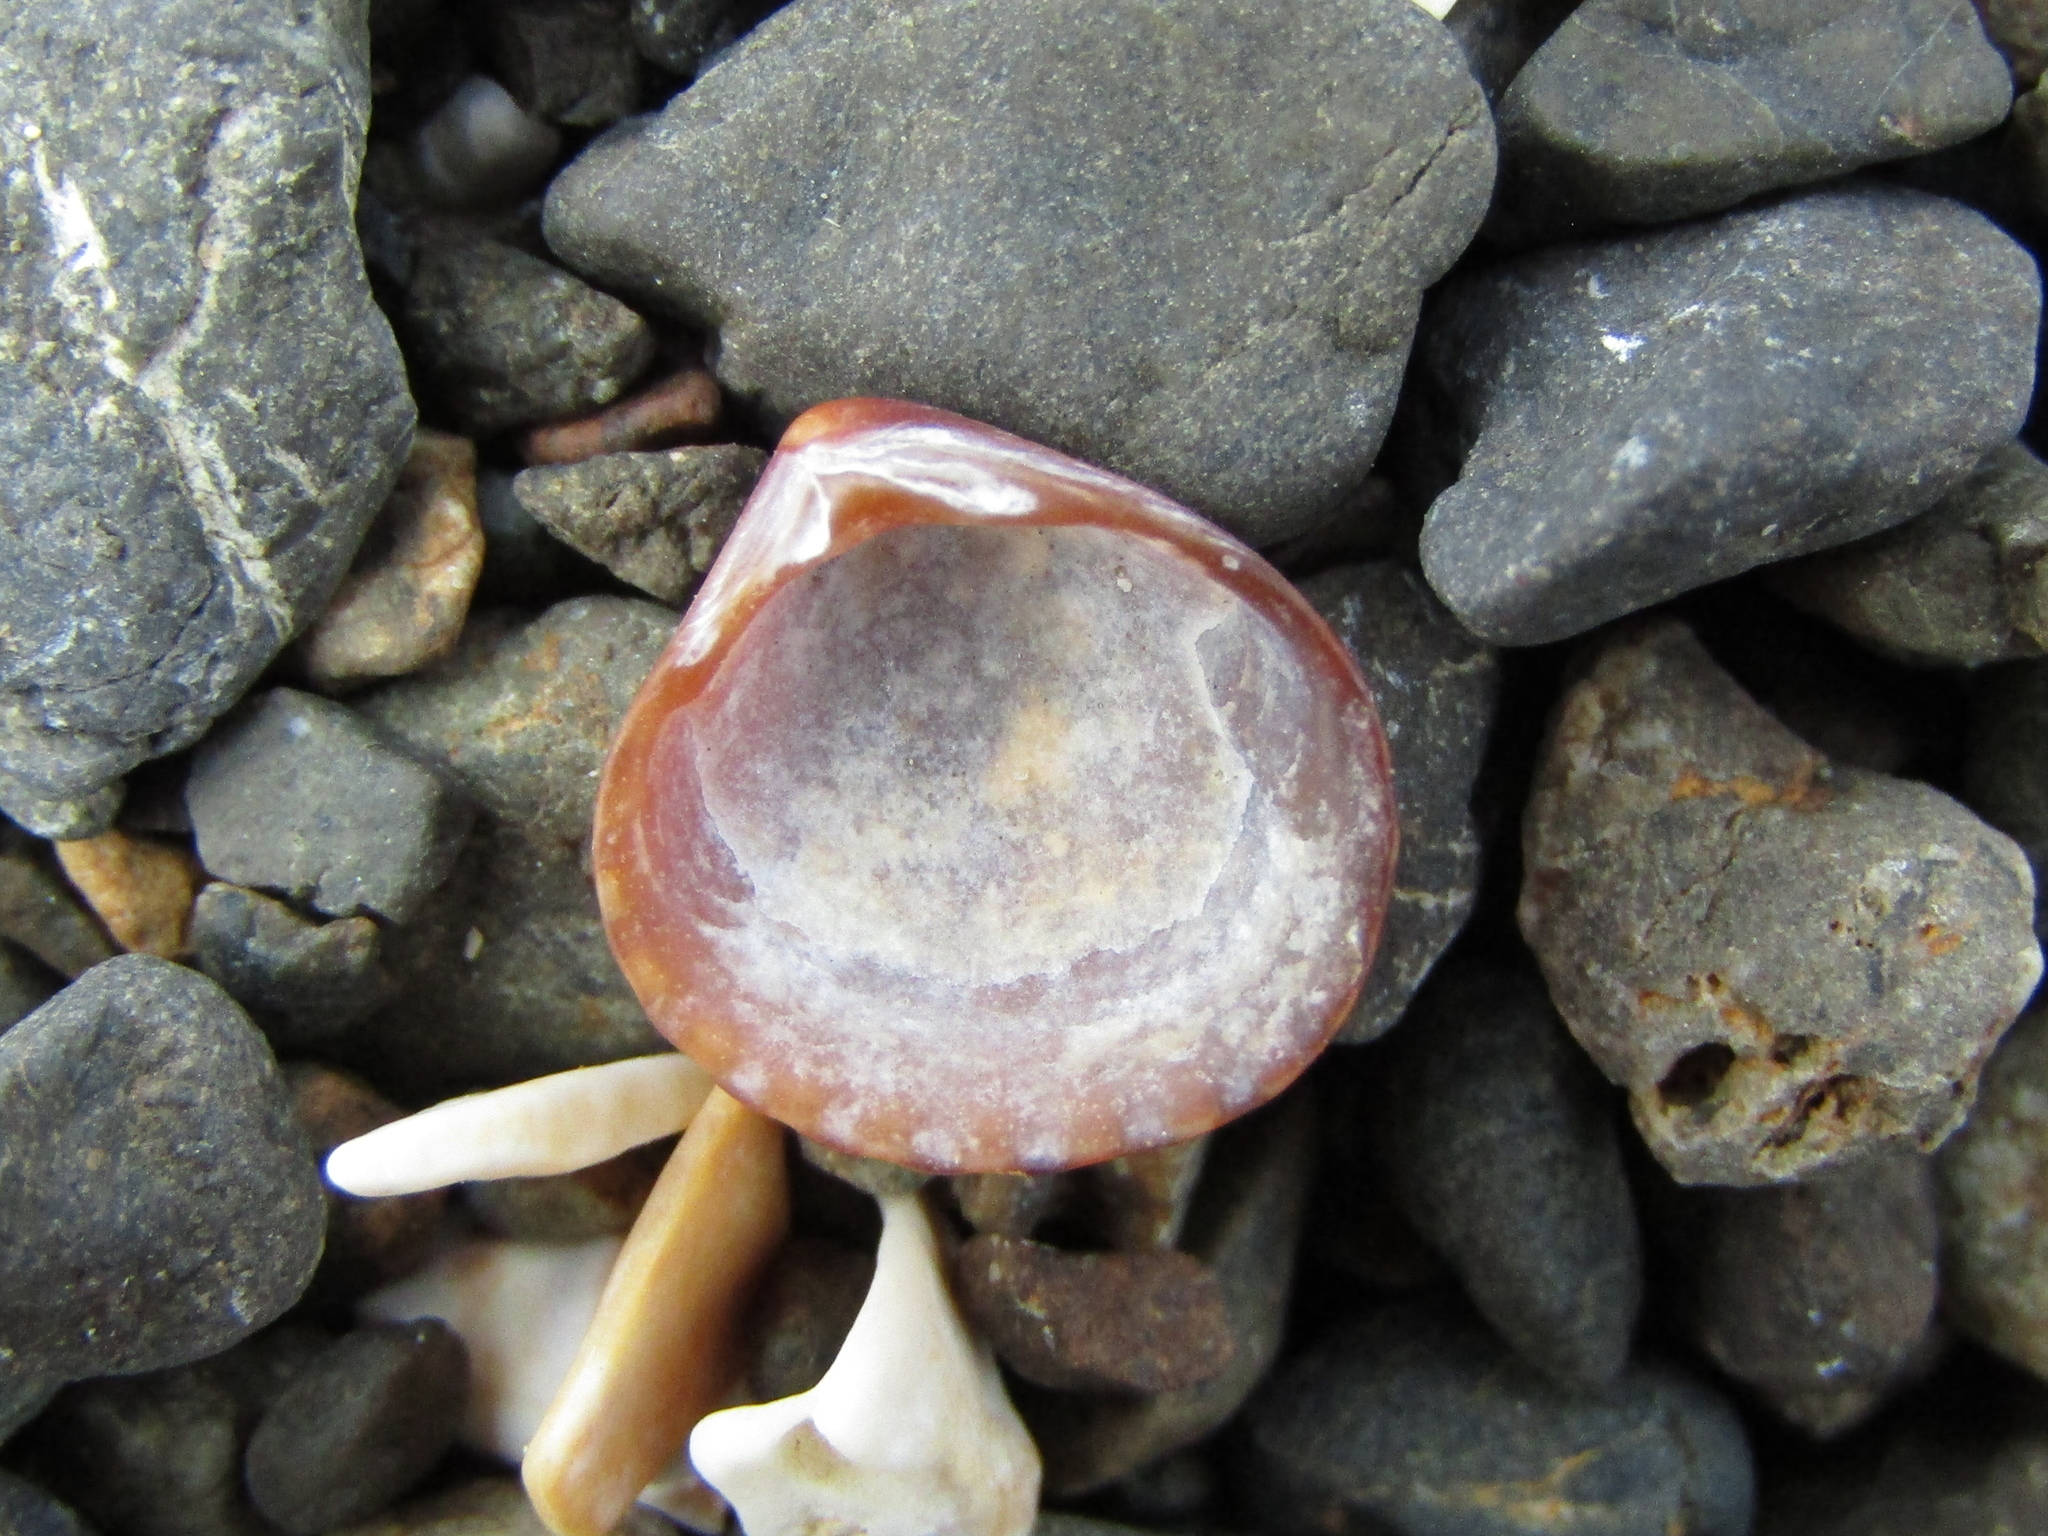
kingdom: Animalia
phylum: Mollusca
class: Bivalvia
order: Carditida
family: Carditidae
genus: Pleuromeris
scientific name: Pleuromeris zelandica
